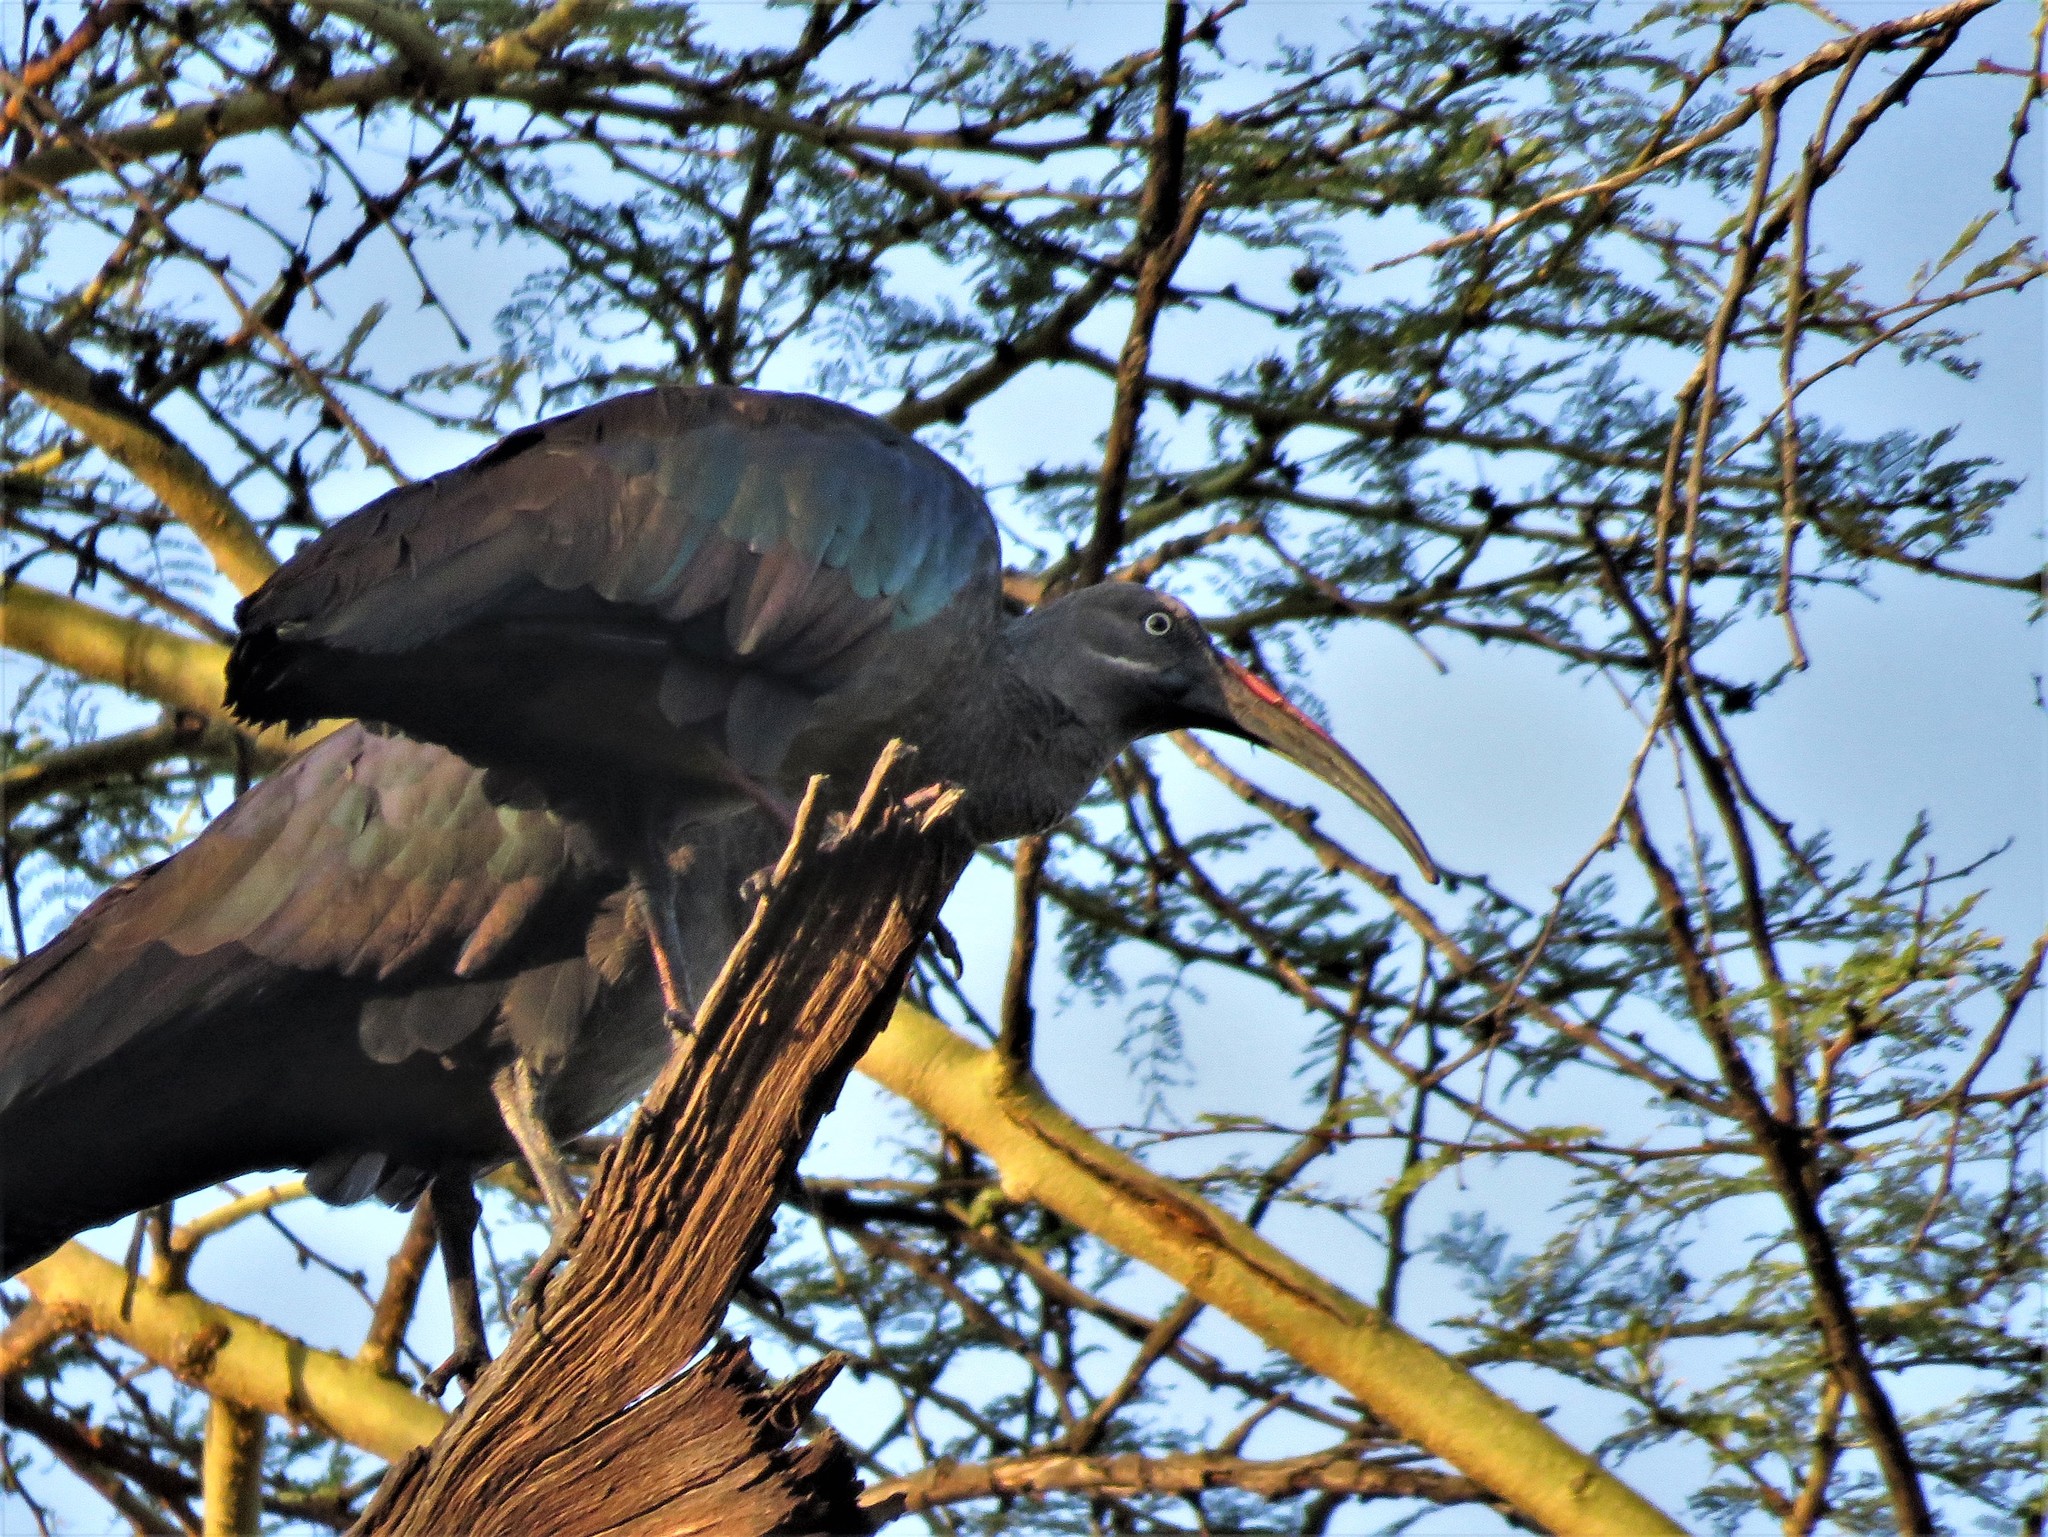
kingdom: Animalia
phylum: Chordata
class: Aves
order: Pelecaniformes
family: Threskiornithidae
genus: Bostrychia
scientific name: Bostrychia hagedash
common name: Hadada ibis
